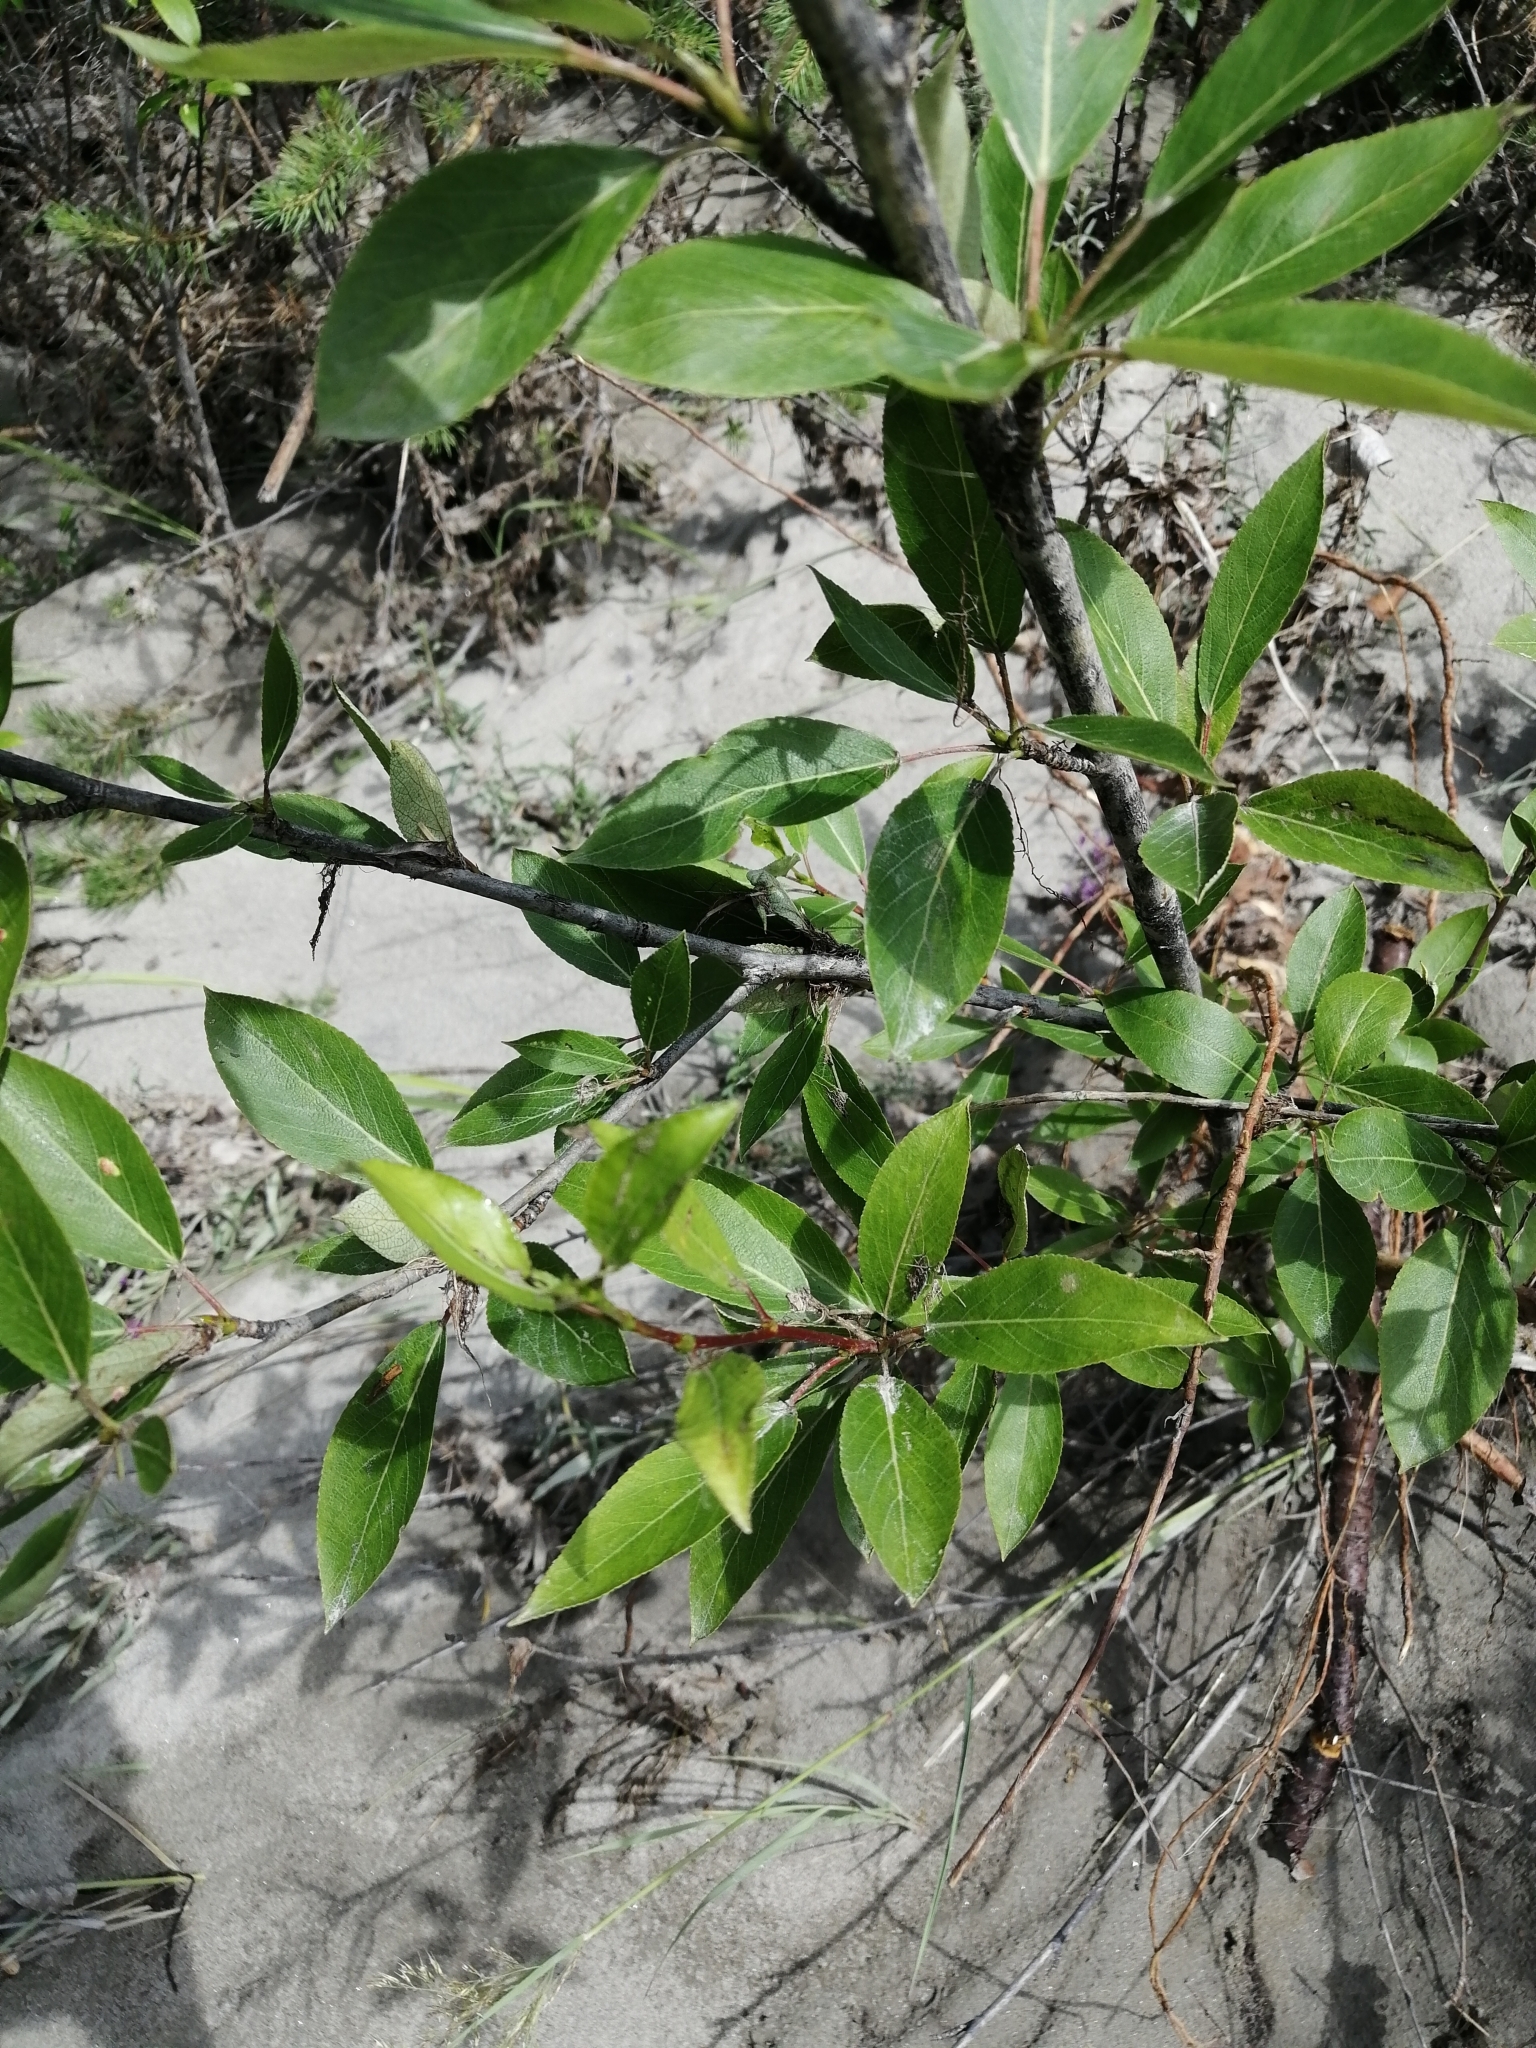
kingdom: Plantae
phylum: Tracheophyta
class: Magnoliopsida
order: Malpighiales
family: Salicaceae
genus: Populus
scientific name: Populus suaveolens
